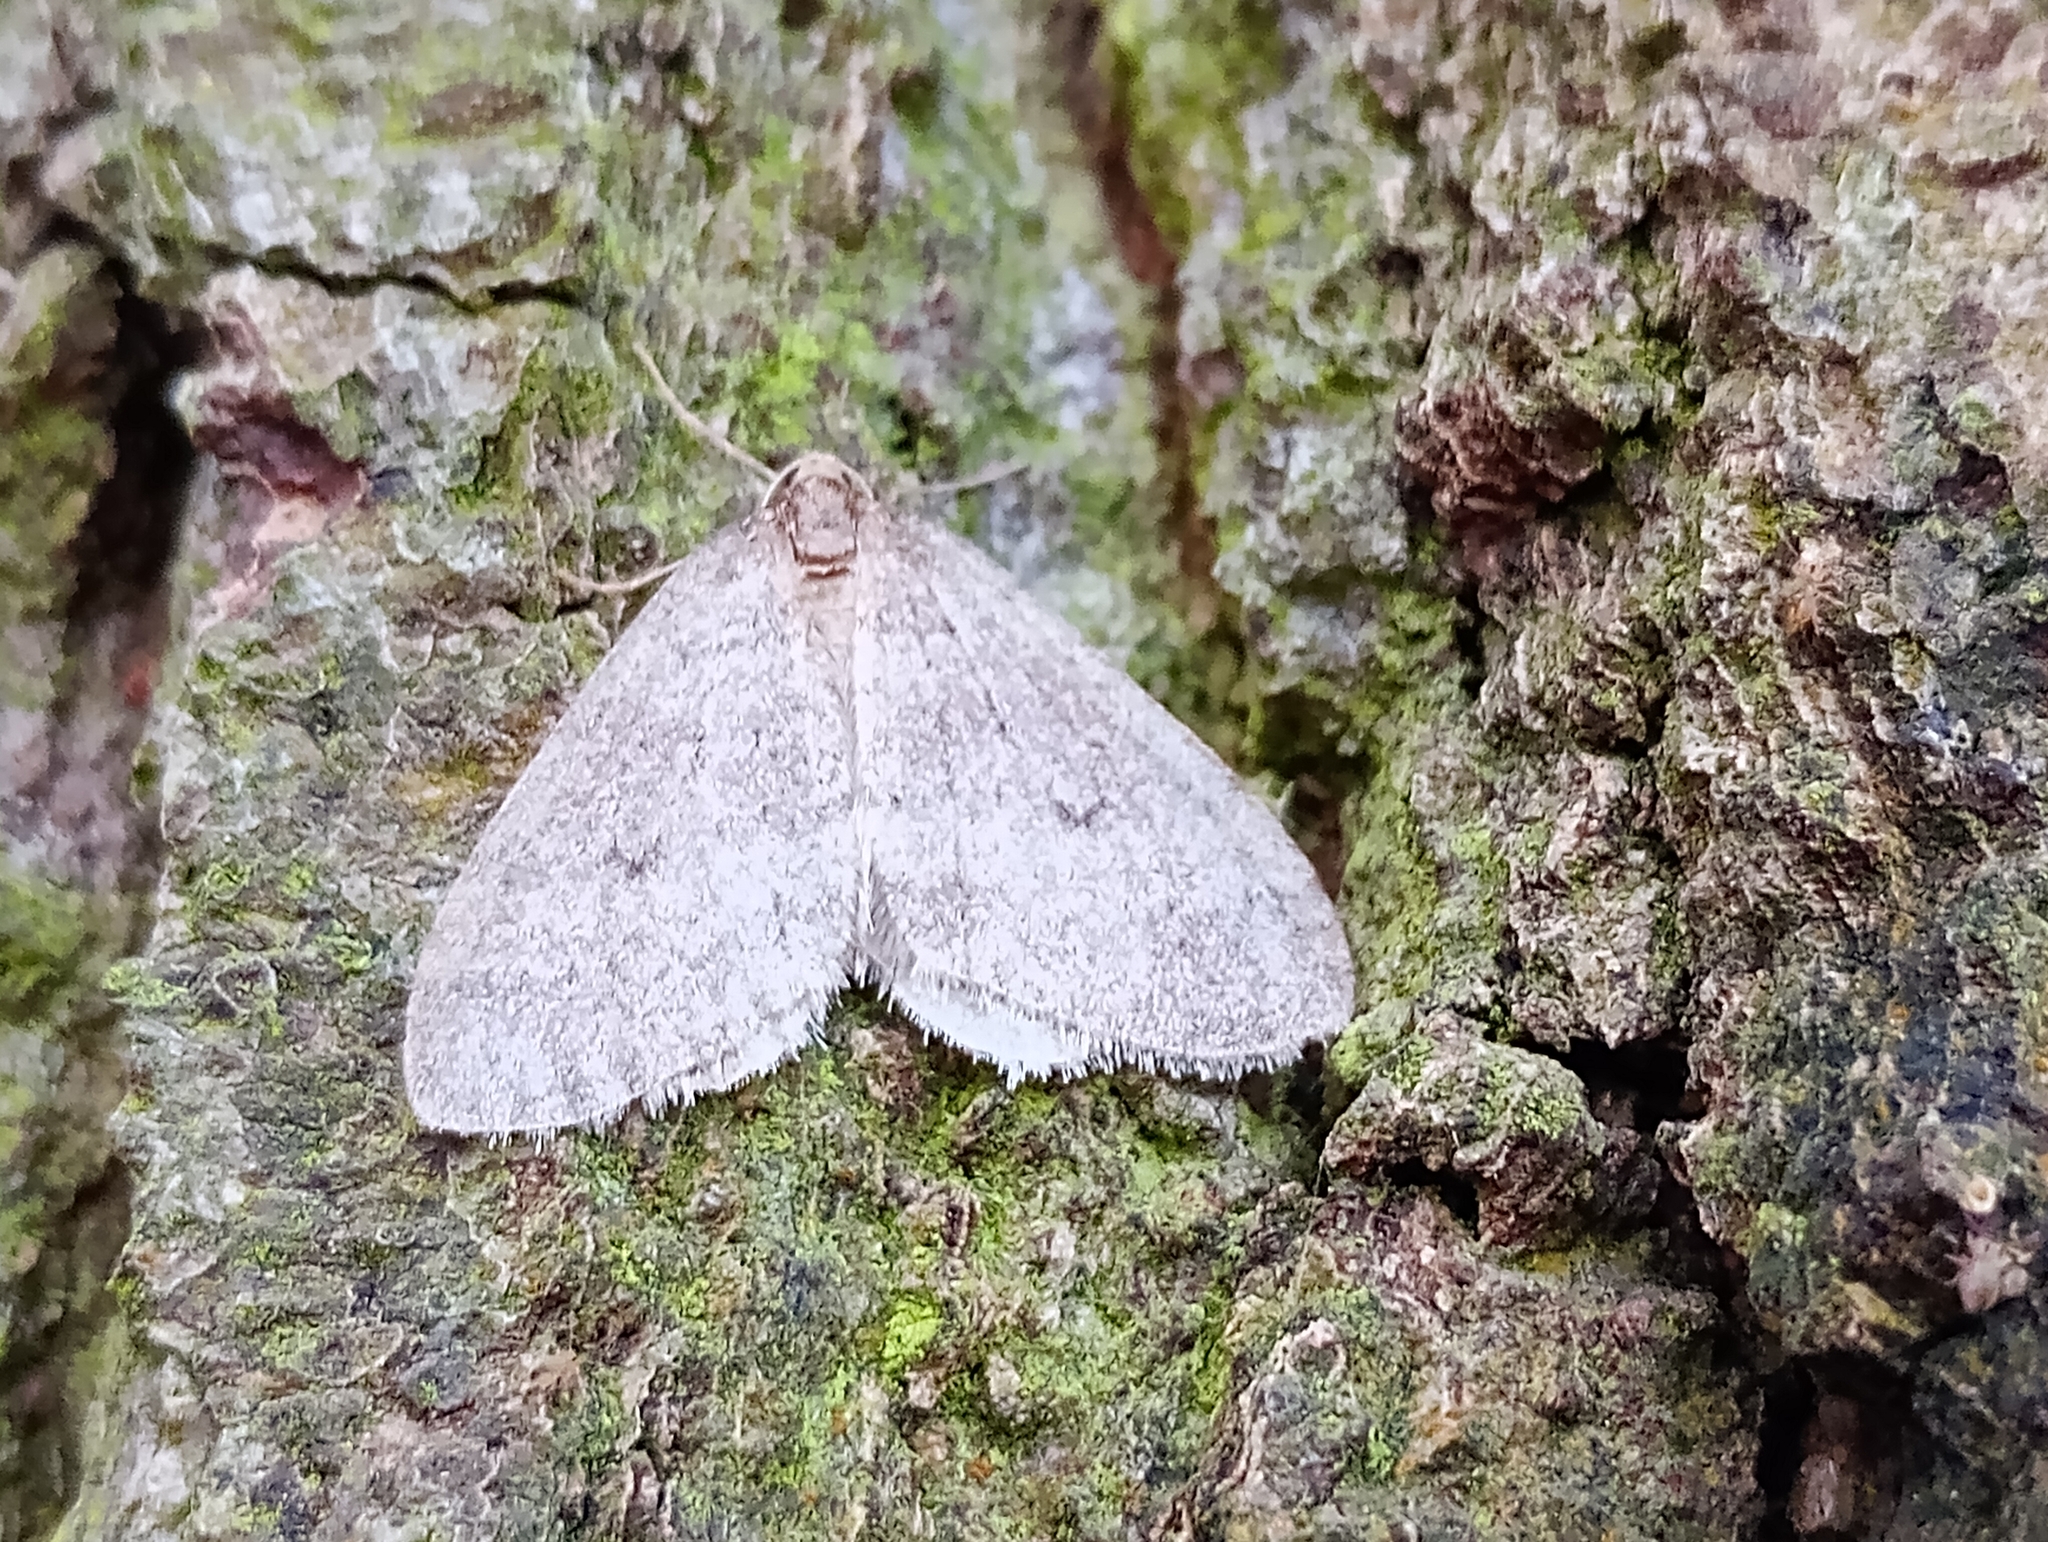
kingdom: Animalia
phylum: Arthropoda
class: Insecta
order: Lepidoptera
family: Geometridae
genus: Operophtera
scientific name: Operophtera brumata
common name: Winter moth
